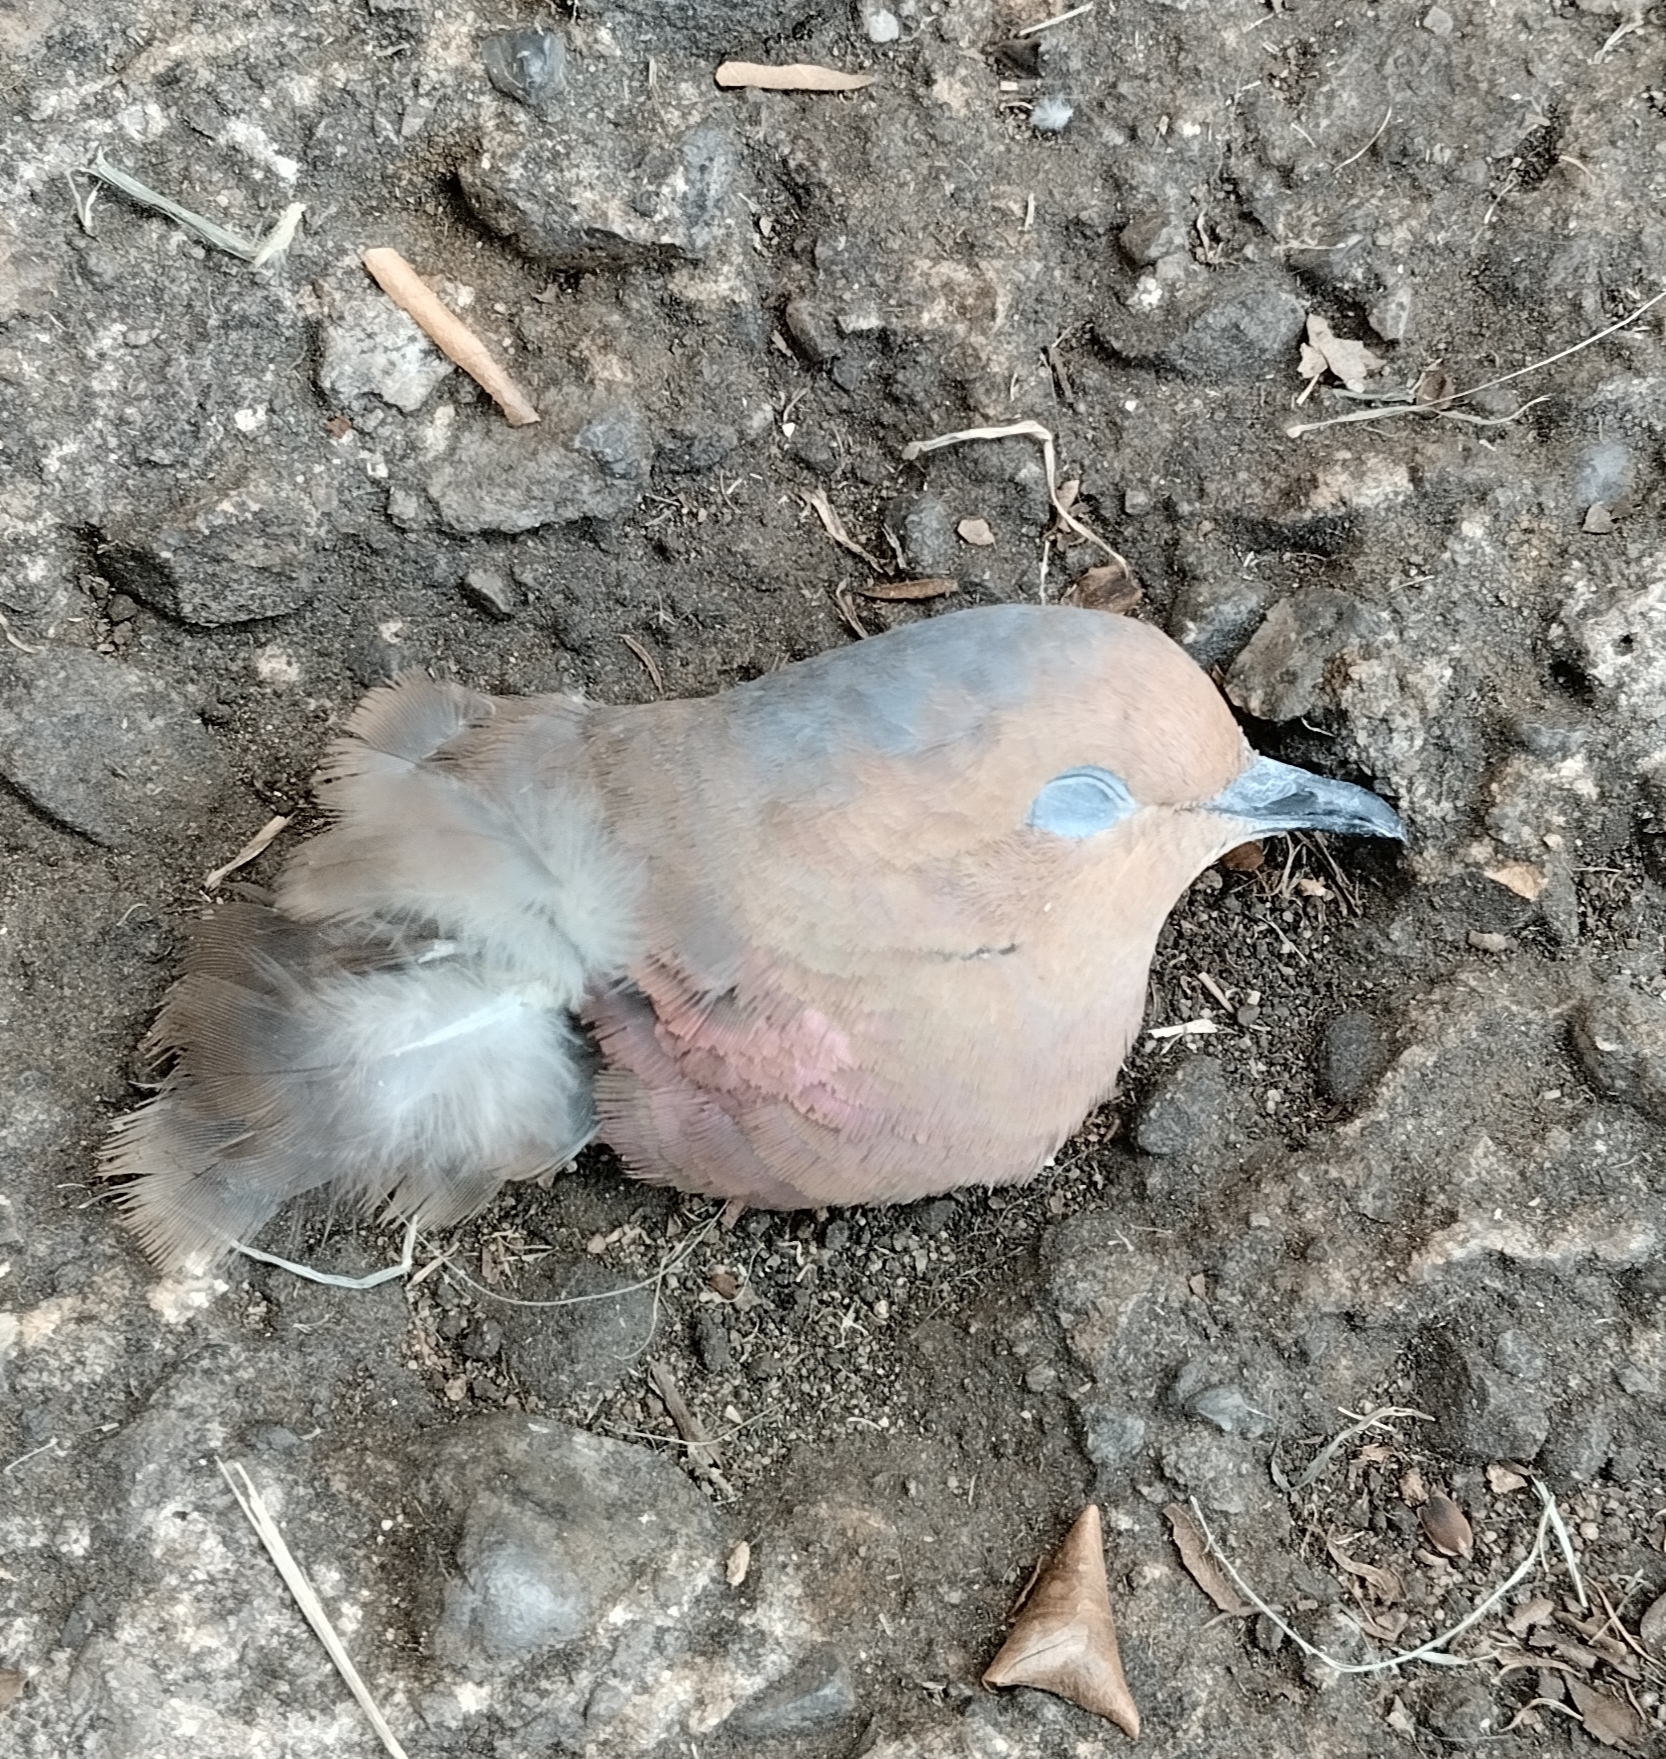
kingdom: Animalia
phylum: Chordata
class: Aves
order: Columbiformes
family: Columbidae
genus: Zenaida
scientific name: Zenaida auriculata
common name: Eared dove
